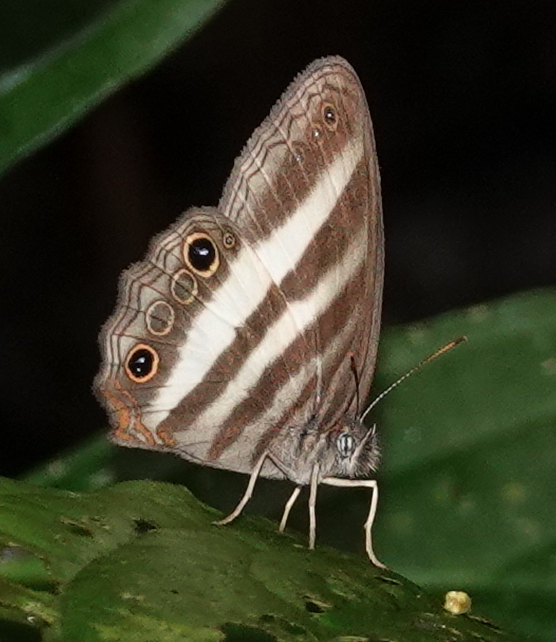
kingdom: Animalia
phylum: Arthropoda
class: Insecta
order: Lepidoptera
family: Nymphalidae
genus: Pareuptychia
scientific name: Pareuptychia hesione
